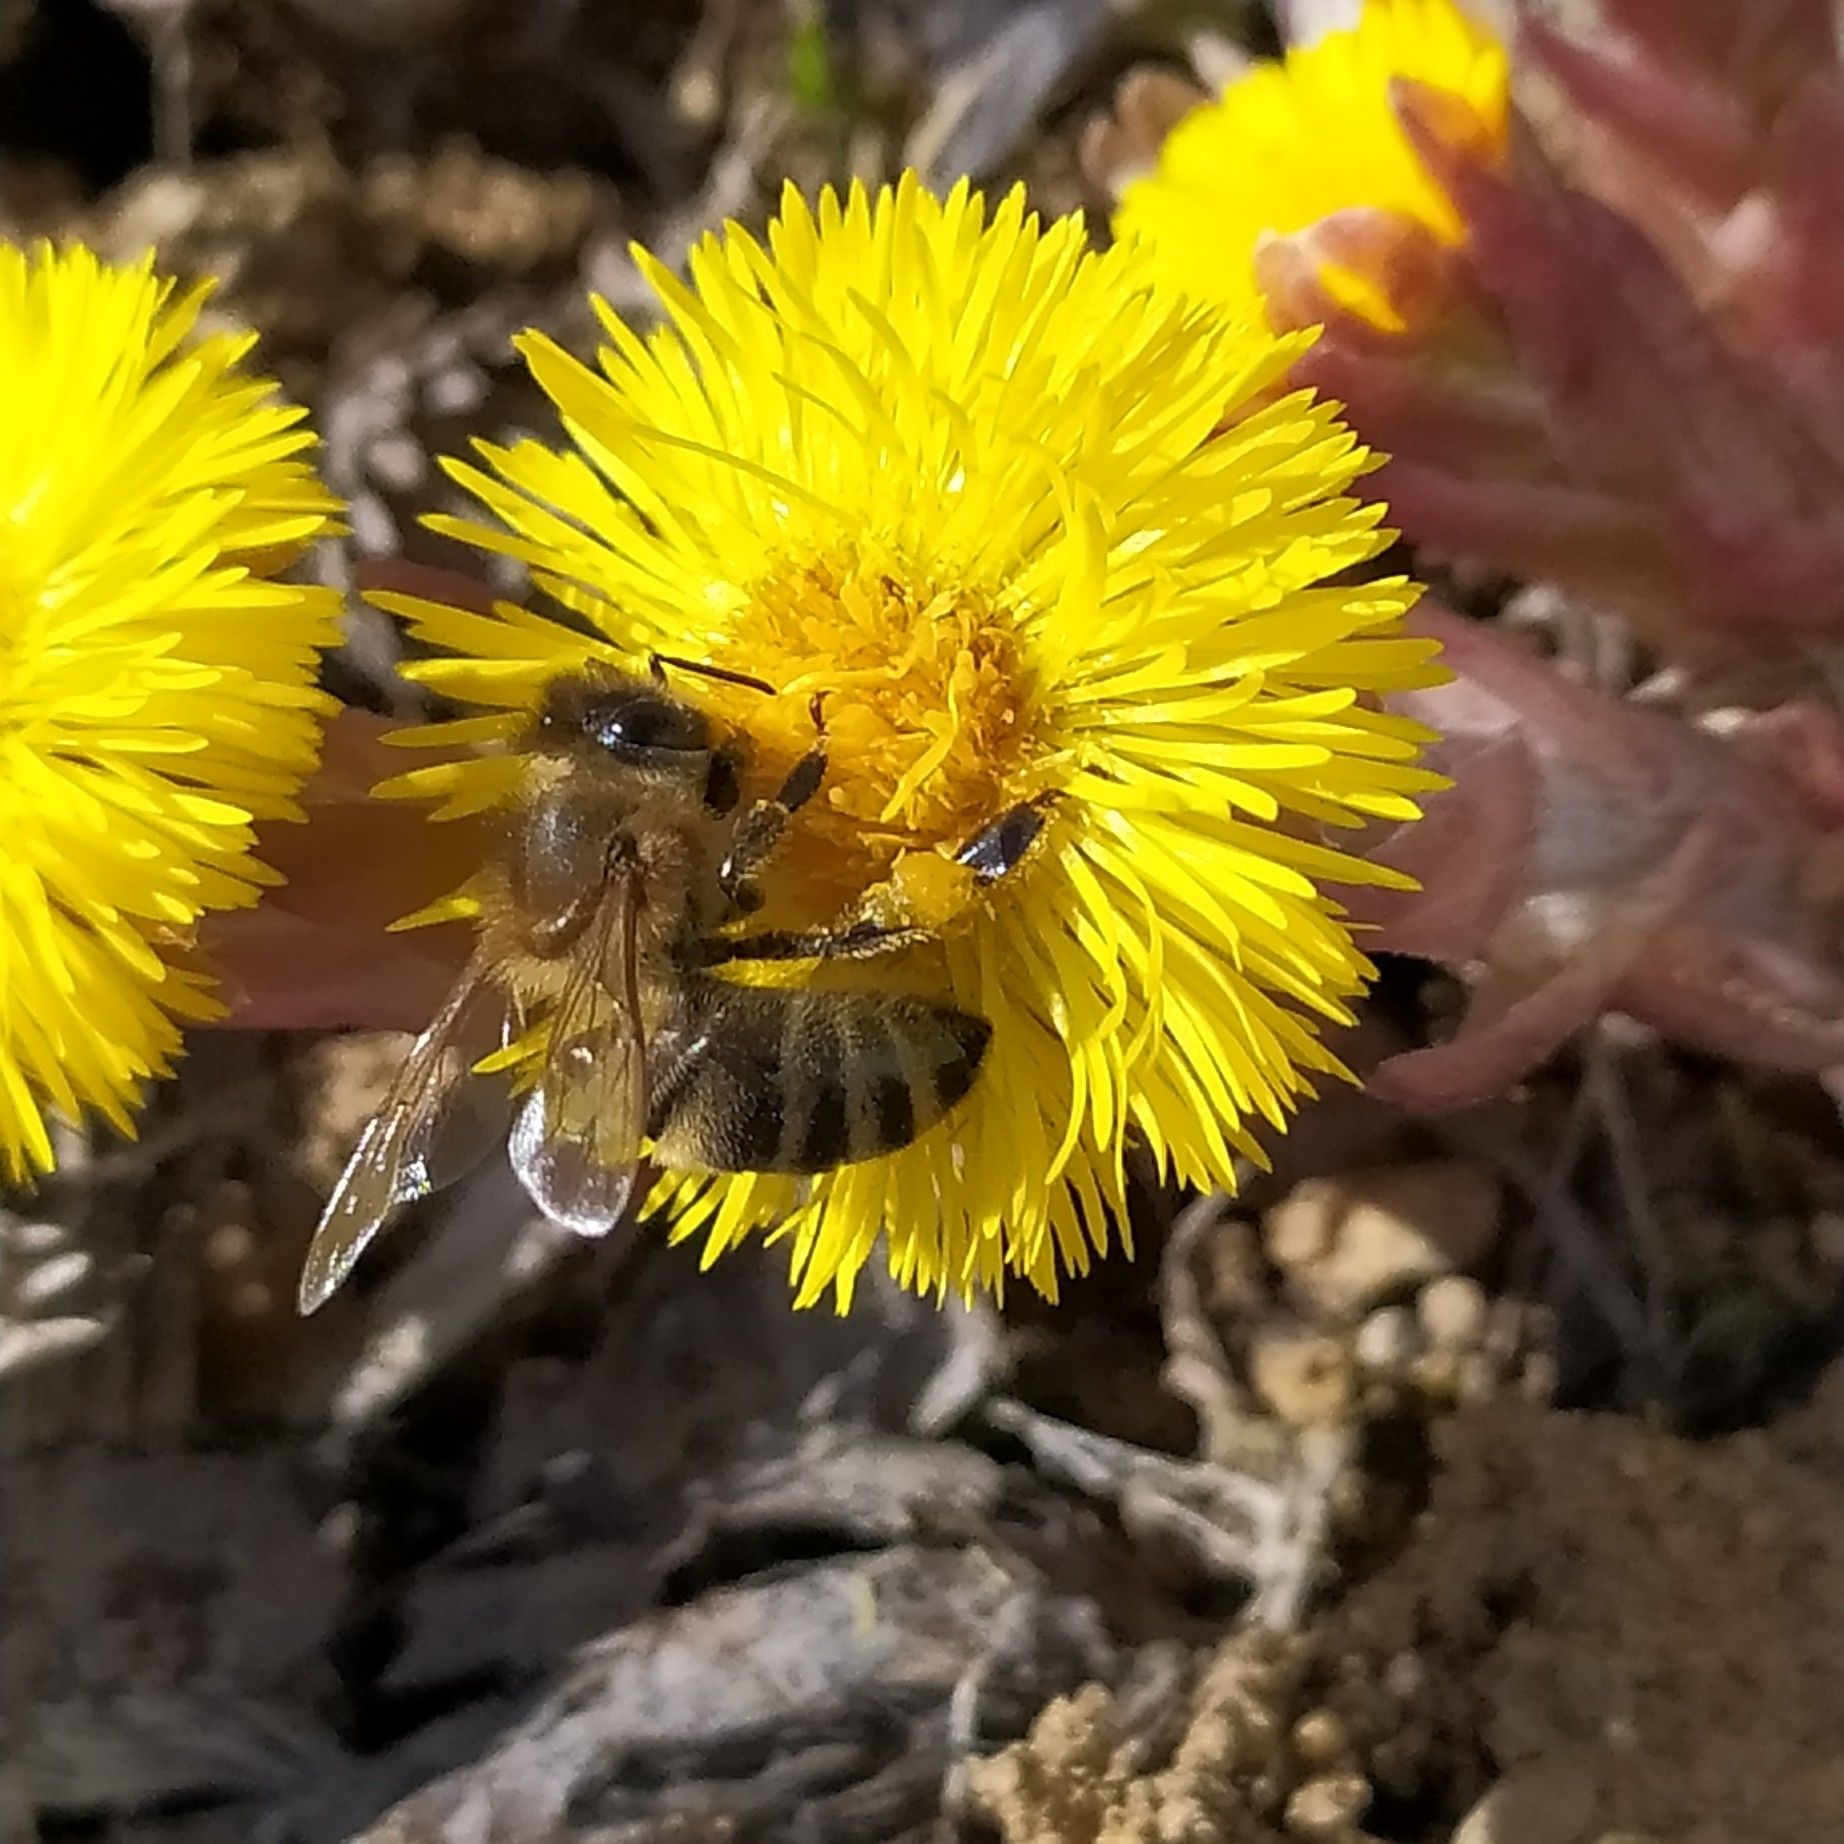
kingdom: Animalia
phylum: Arthropoda
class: Insecta
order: Hymenoptera
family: Apidae
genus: Apis
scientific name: Apis mellifera
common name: Honey bee
